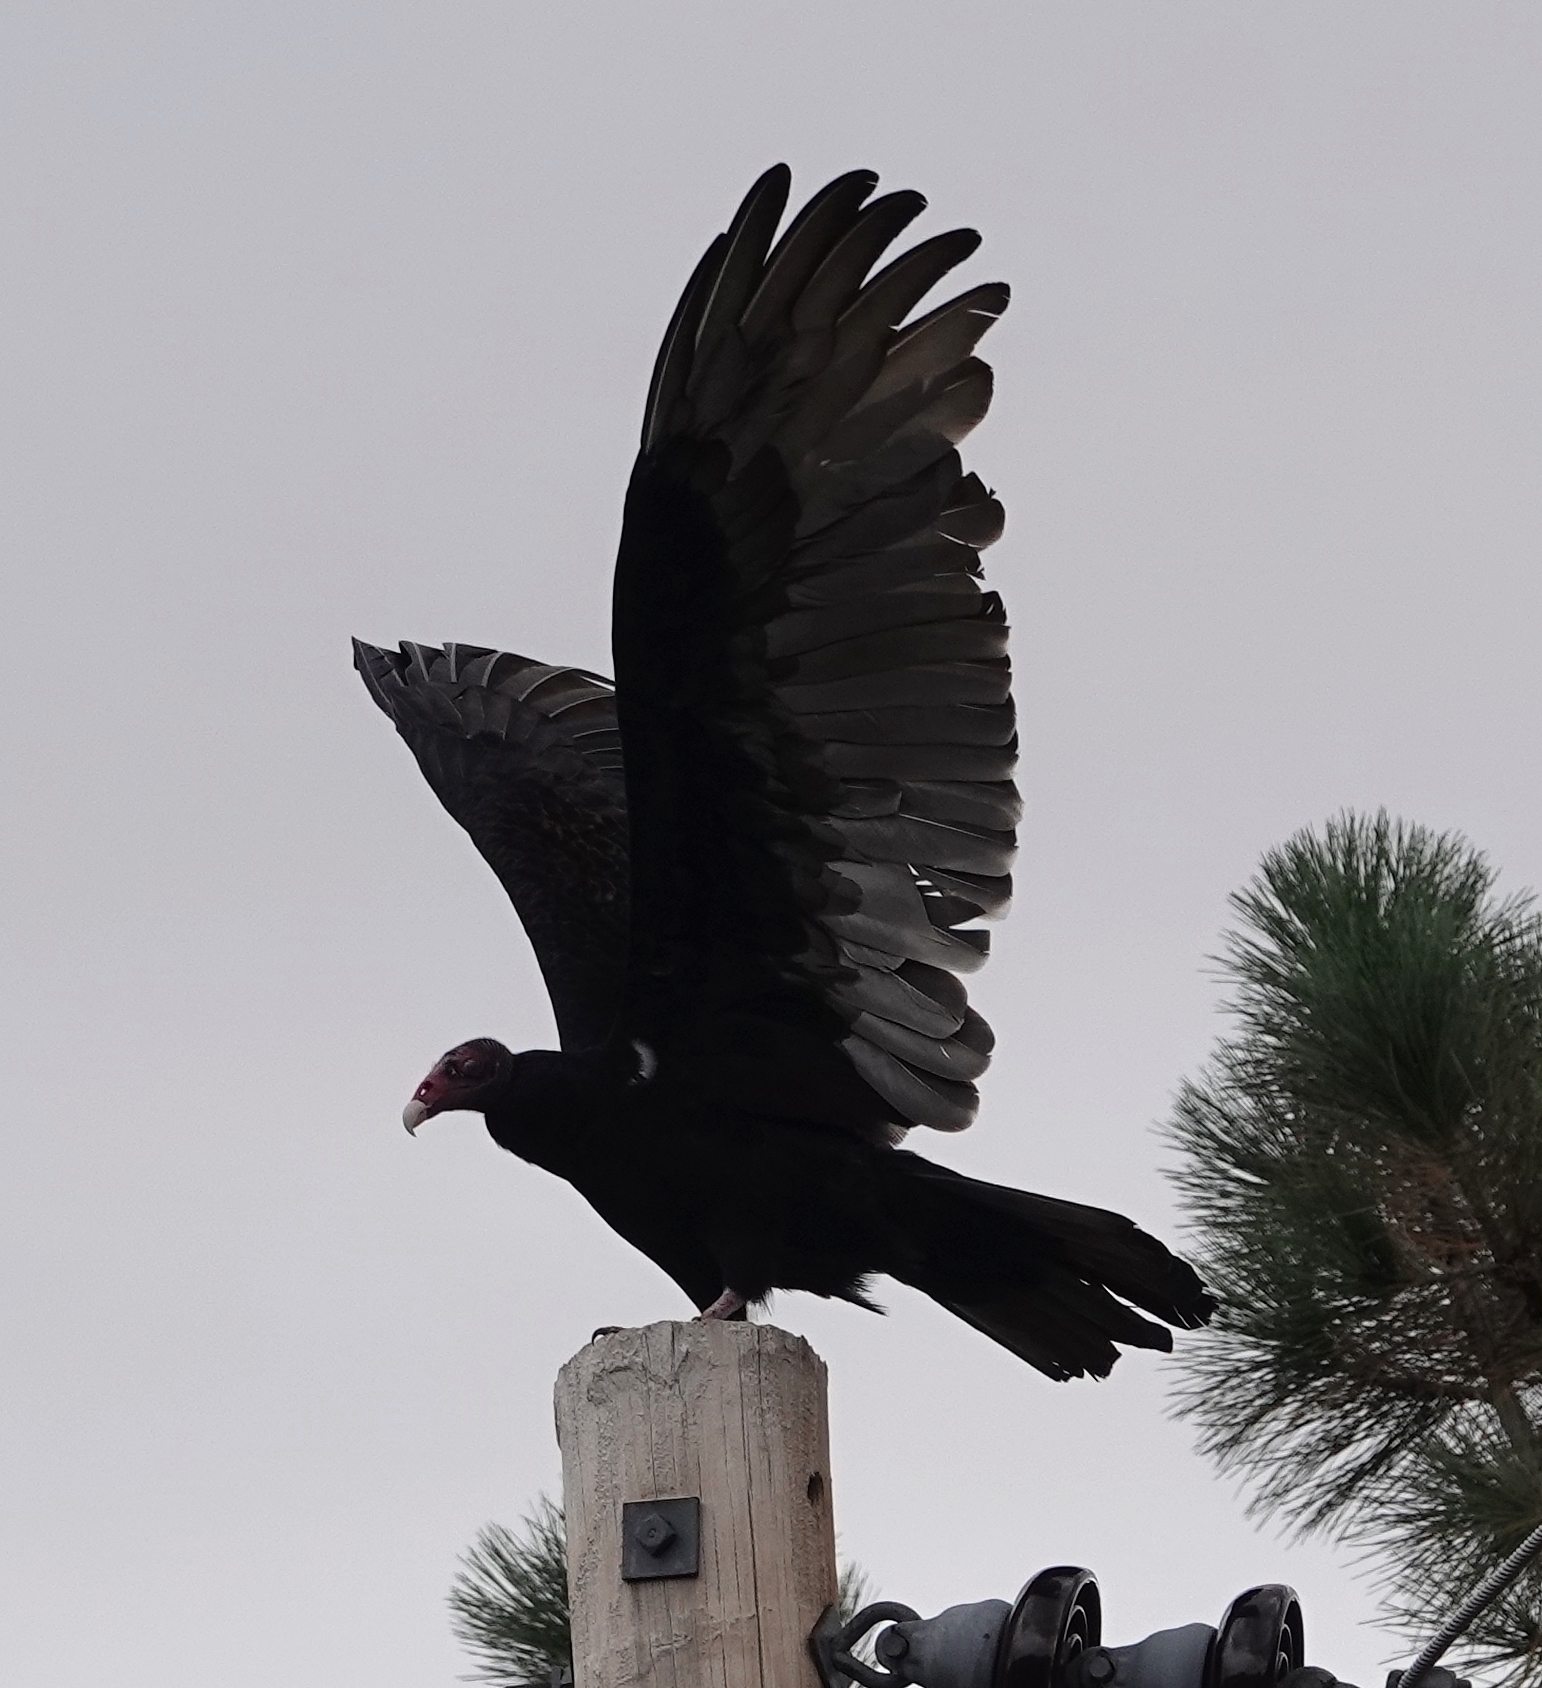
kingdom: Animalia
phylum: Chordata
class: Aves
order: Accipitriformes
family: Cathartidae
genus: Cathartes
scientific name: Cathartes aura
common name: Turkey vulture
